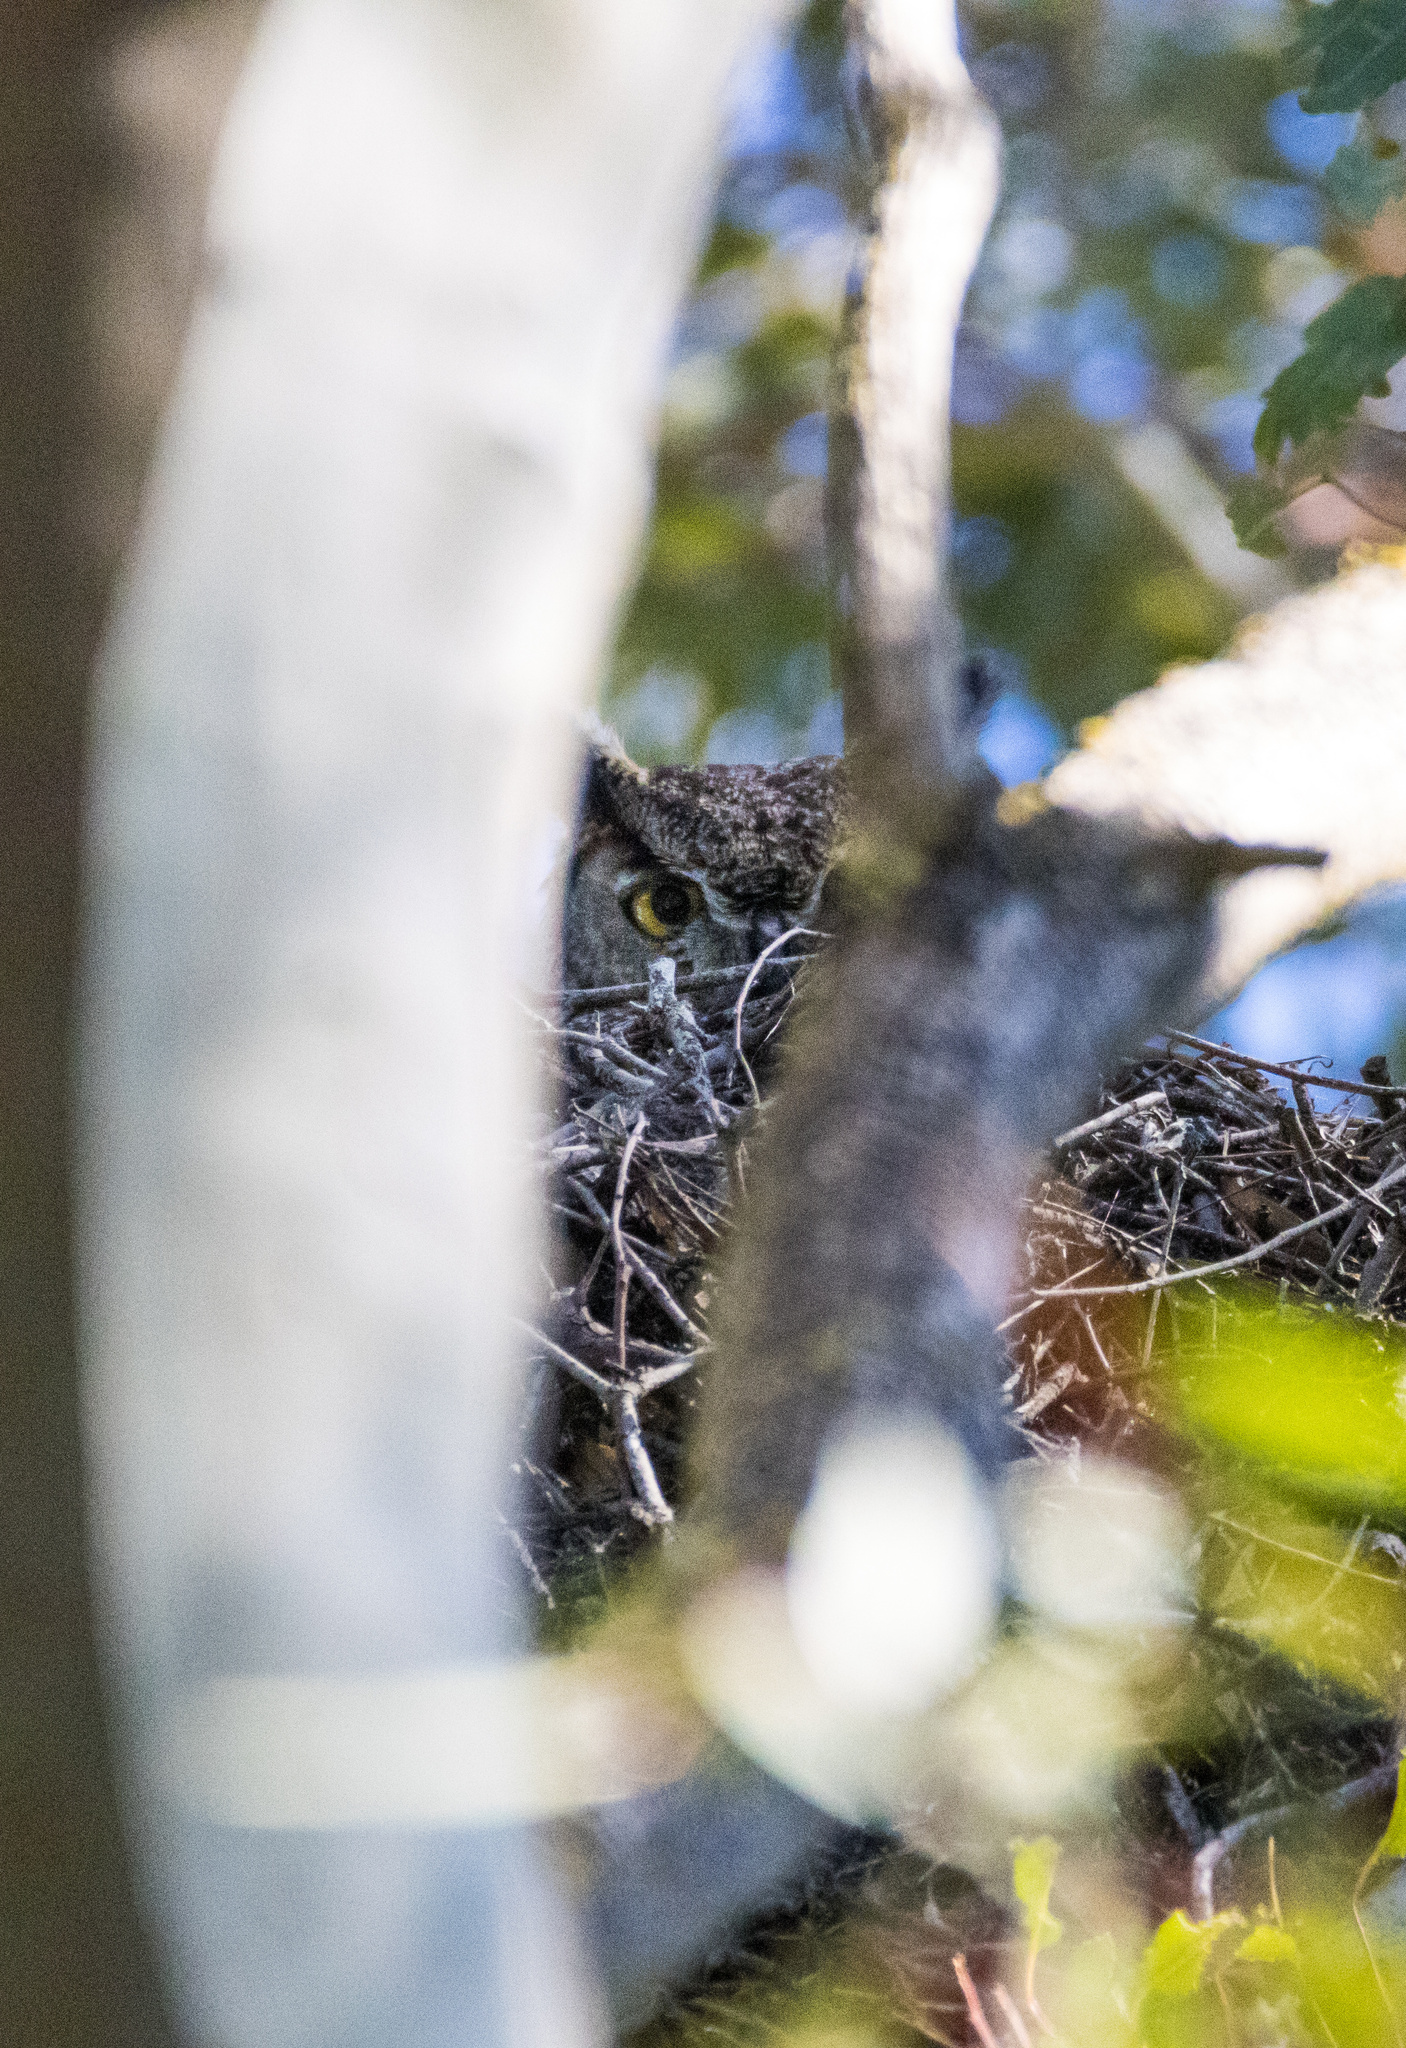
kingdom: Animalia
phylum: Chordata
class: Aves
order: Strigiformes
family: Strigidae
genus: Bubo
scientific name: Bubo virginianus
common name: Great horned owl
